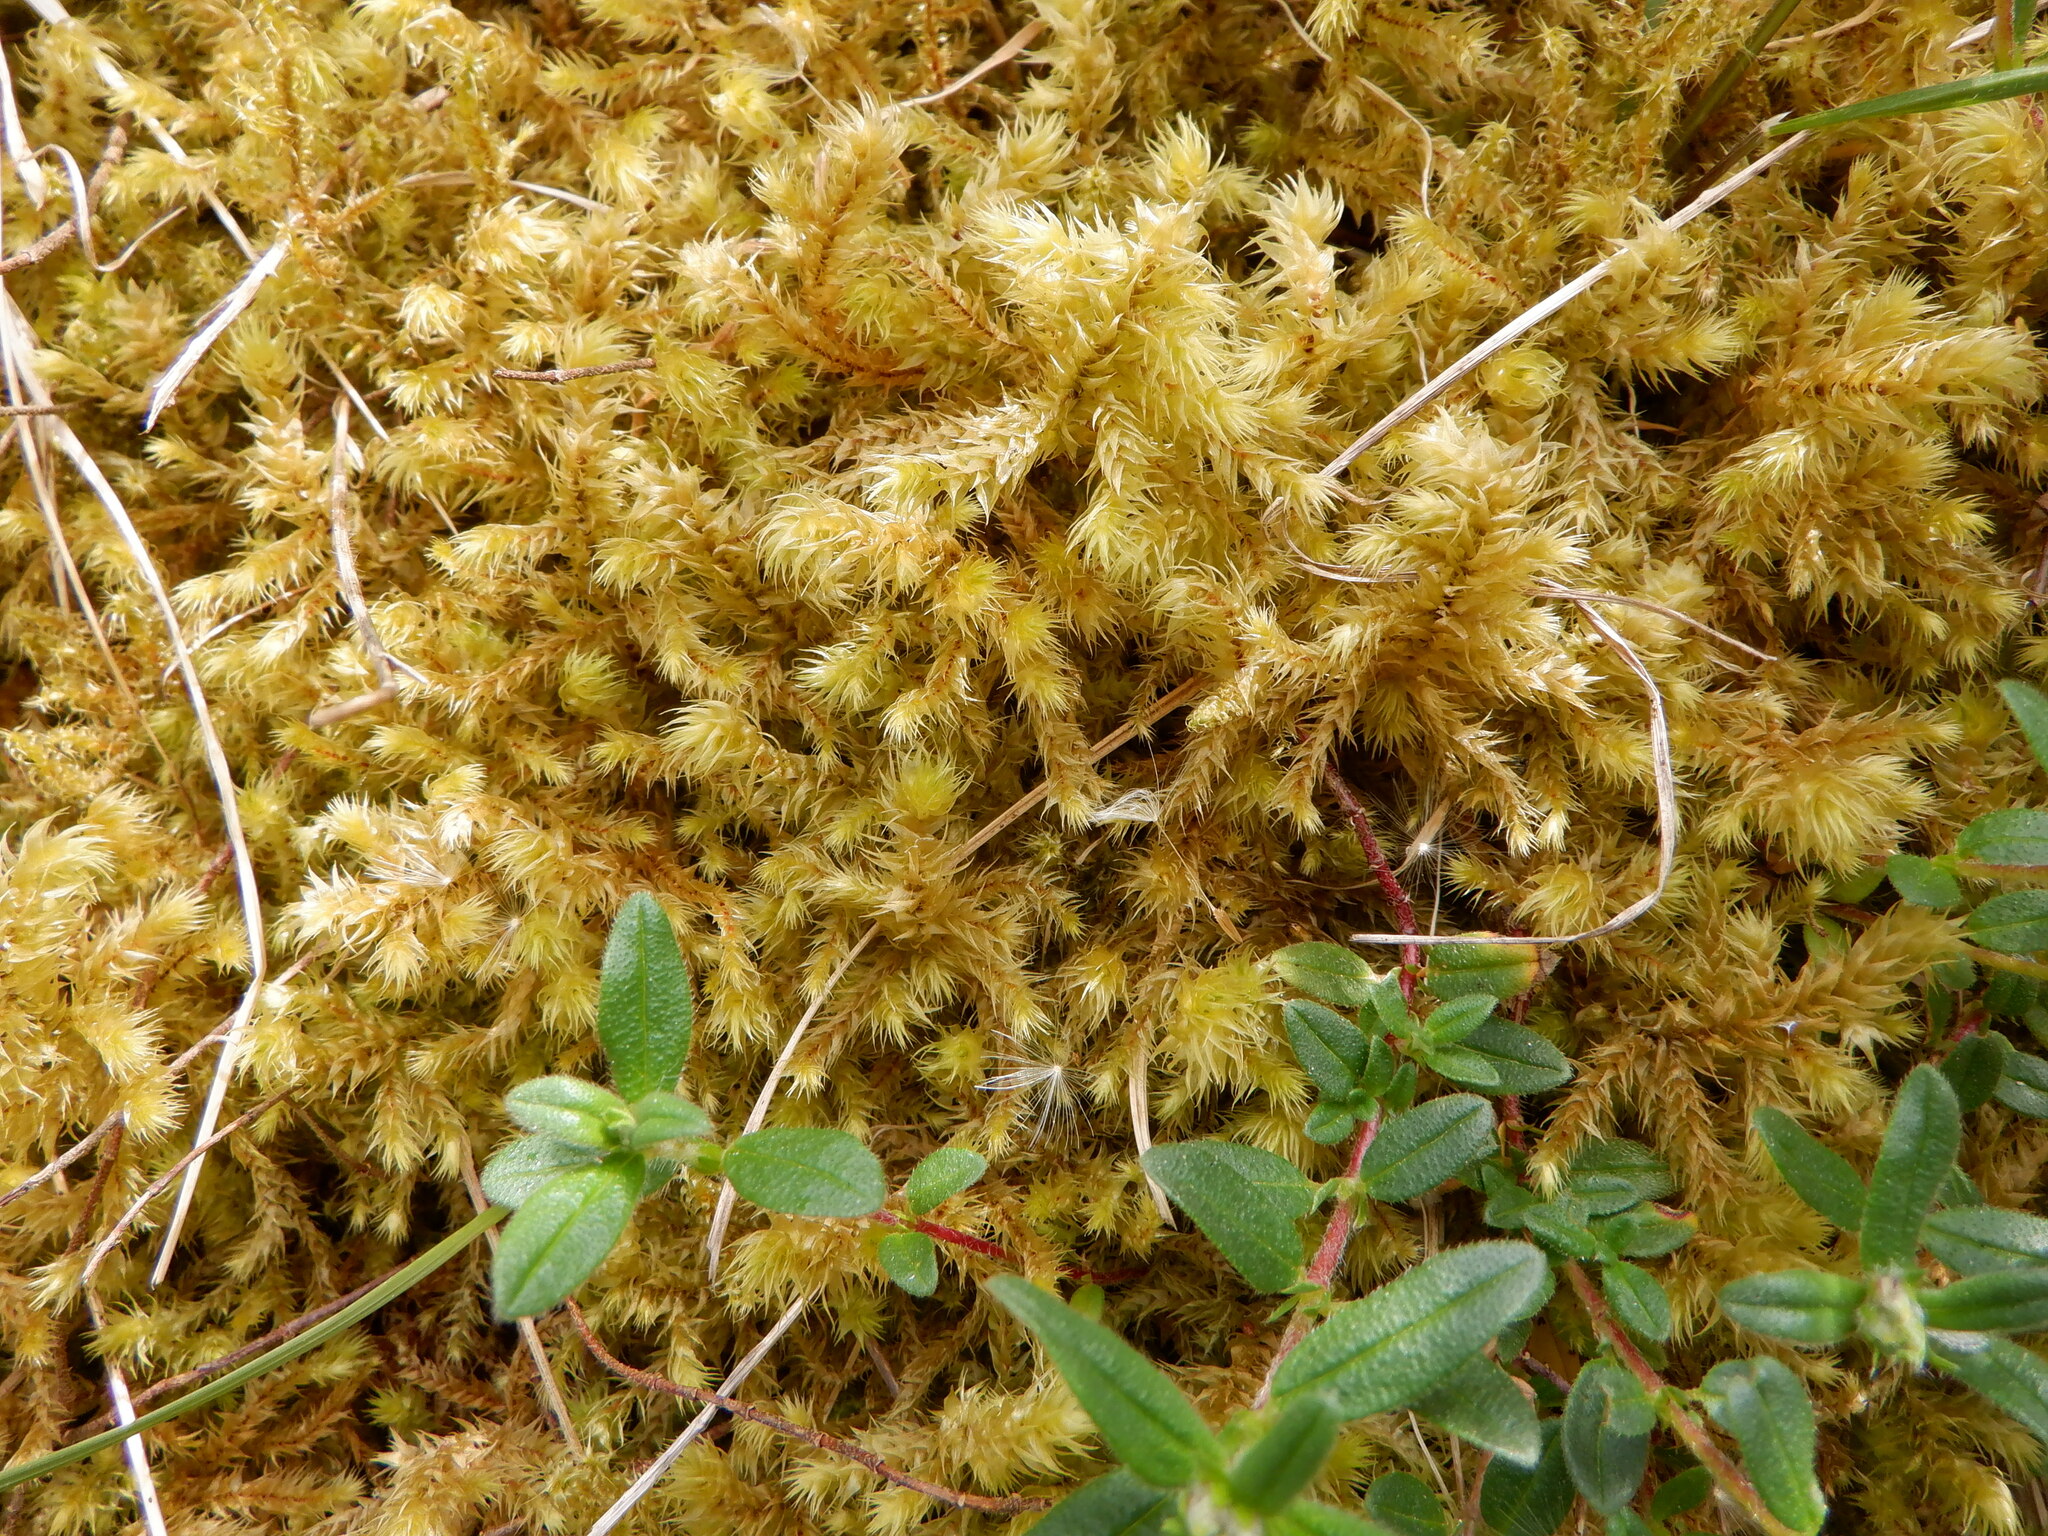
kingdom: Plantae
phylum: Bryophyta
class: Bryopsida
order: Hypnales
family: Hylocomiaceae
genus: Hylocomiadelphus
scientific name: Hylocomiadelphus triquetrus
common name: Rough goose neck moss
